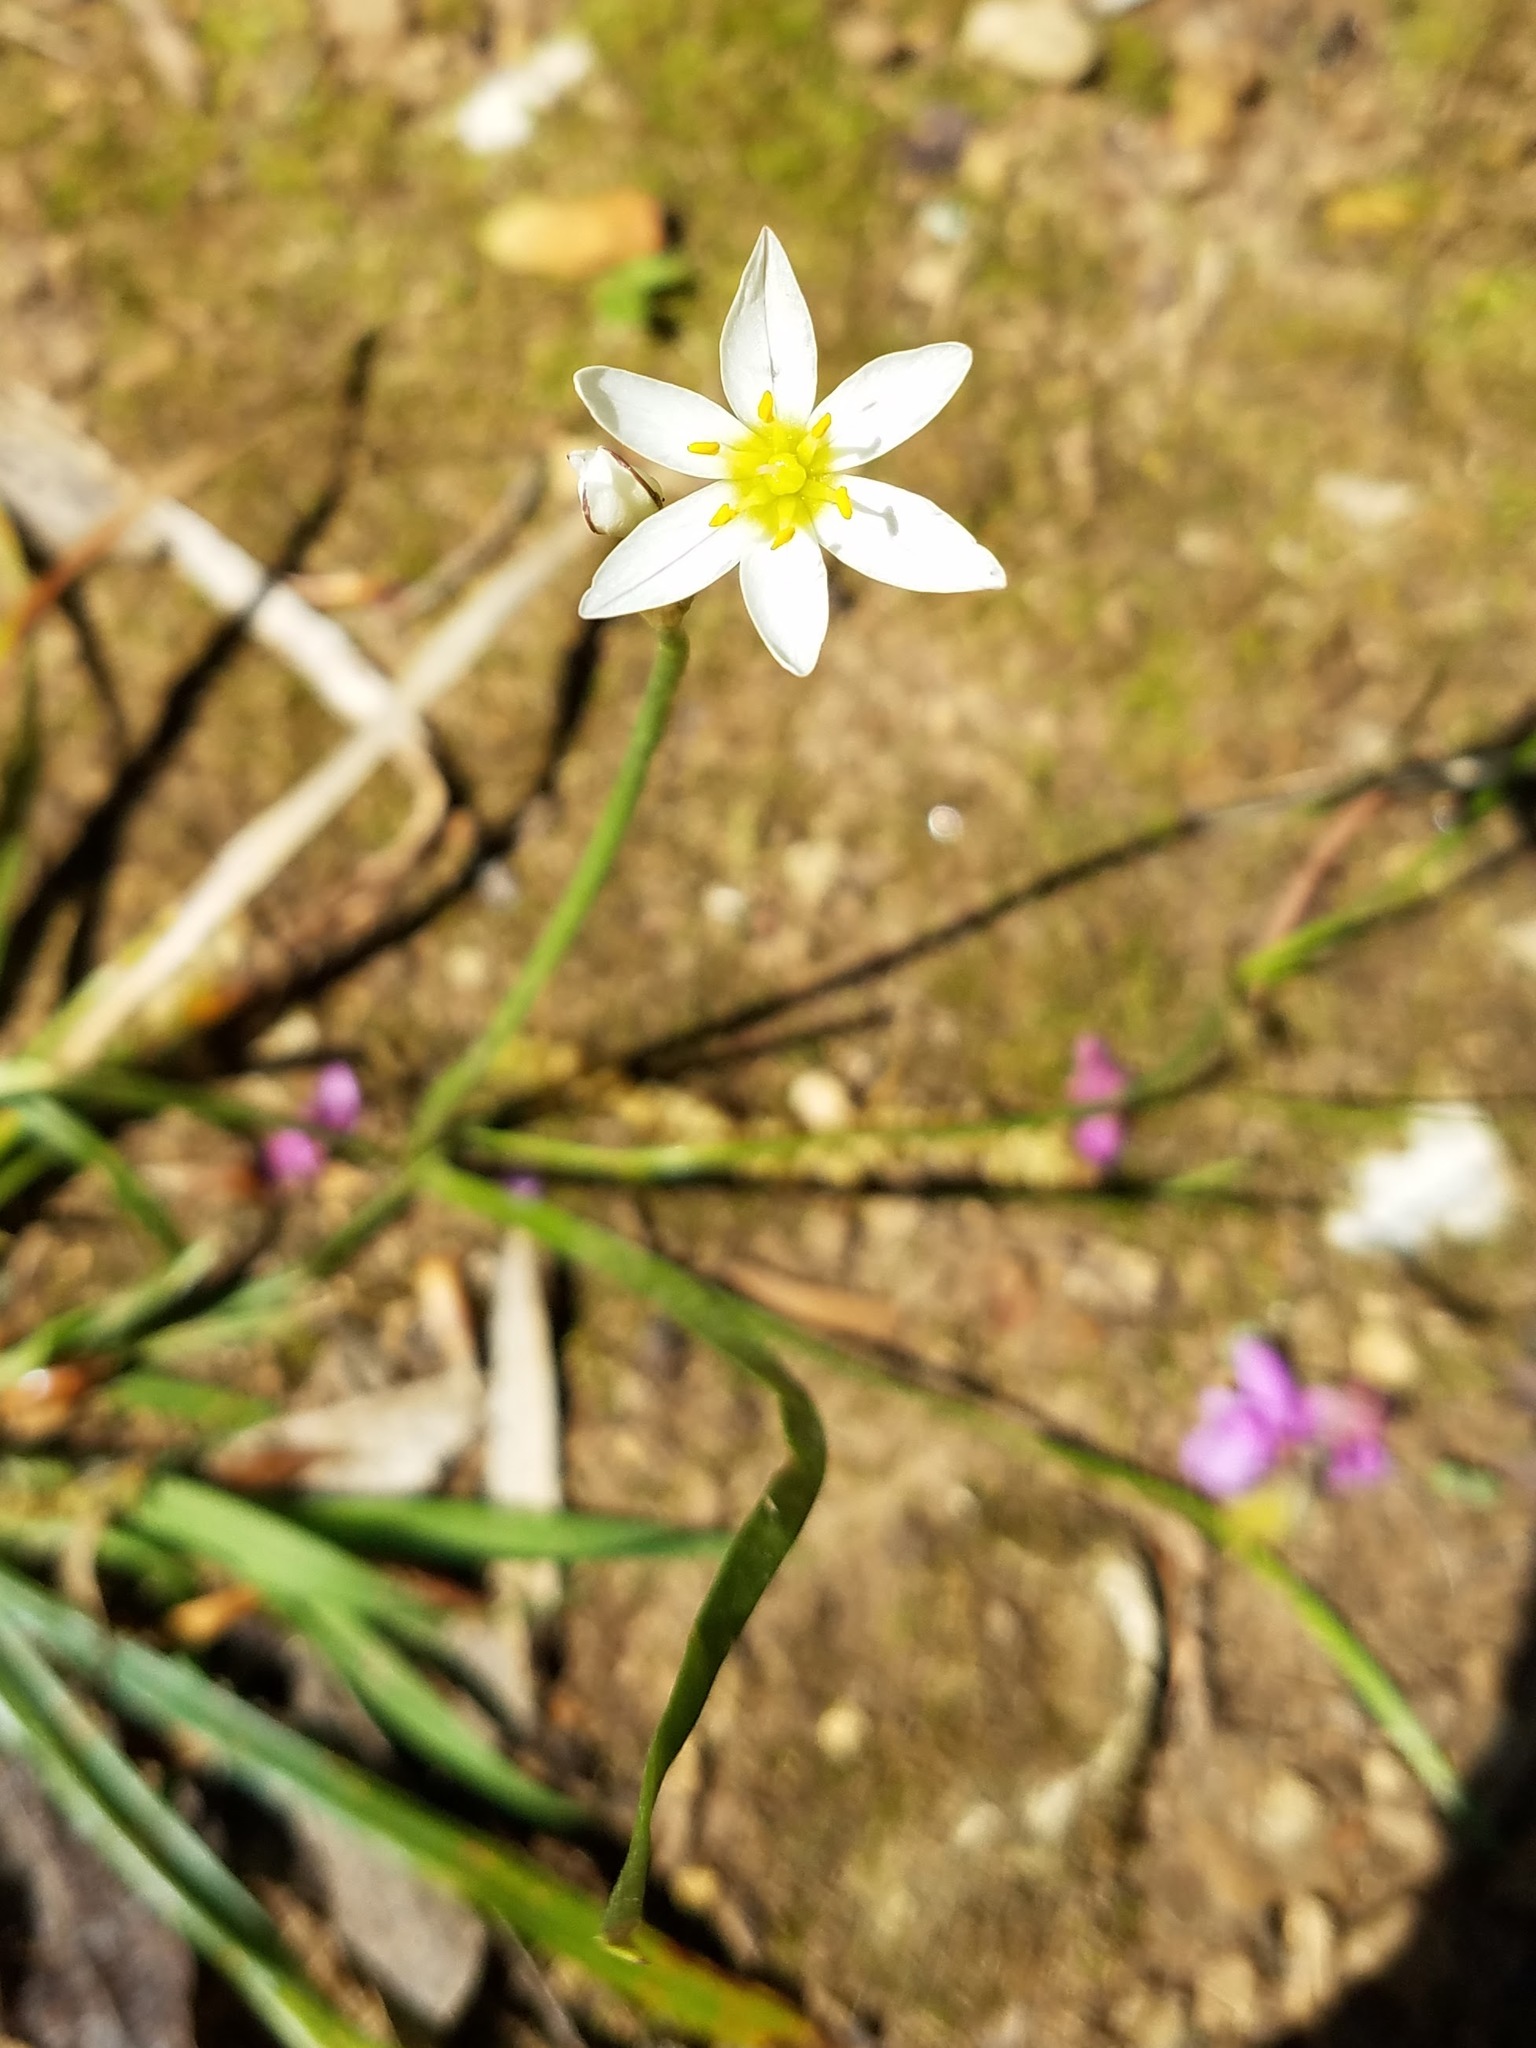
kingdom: Plantae
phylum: Tracheophyta
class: Liliopsida
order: Asparagales
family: Amaryllidaceae
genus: Nothoscordum
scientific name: Nothoscordum bivalve
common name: Crow-poison
